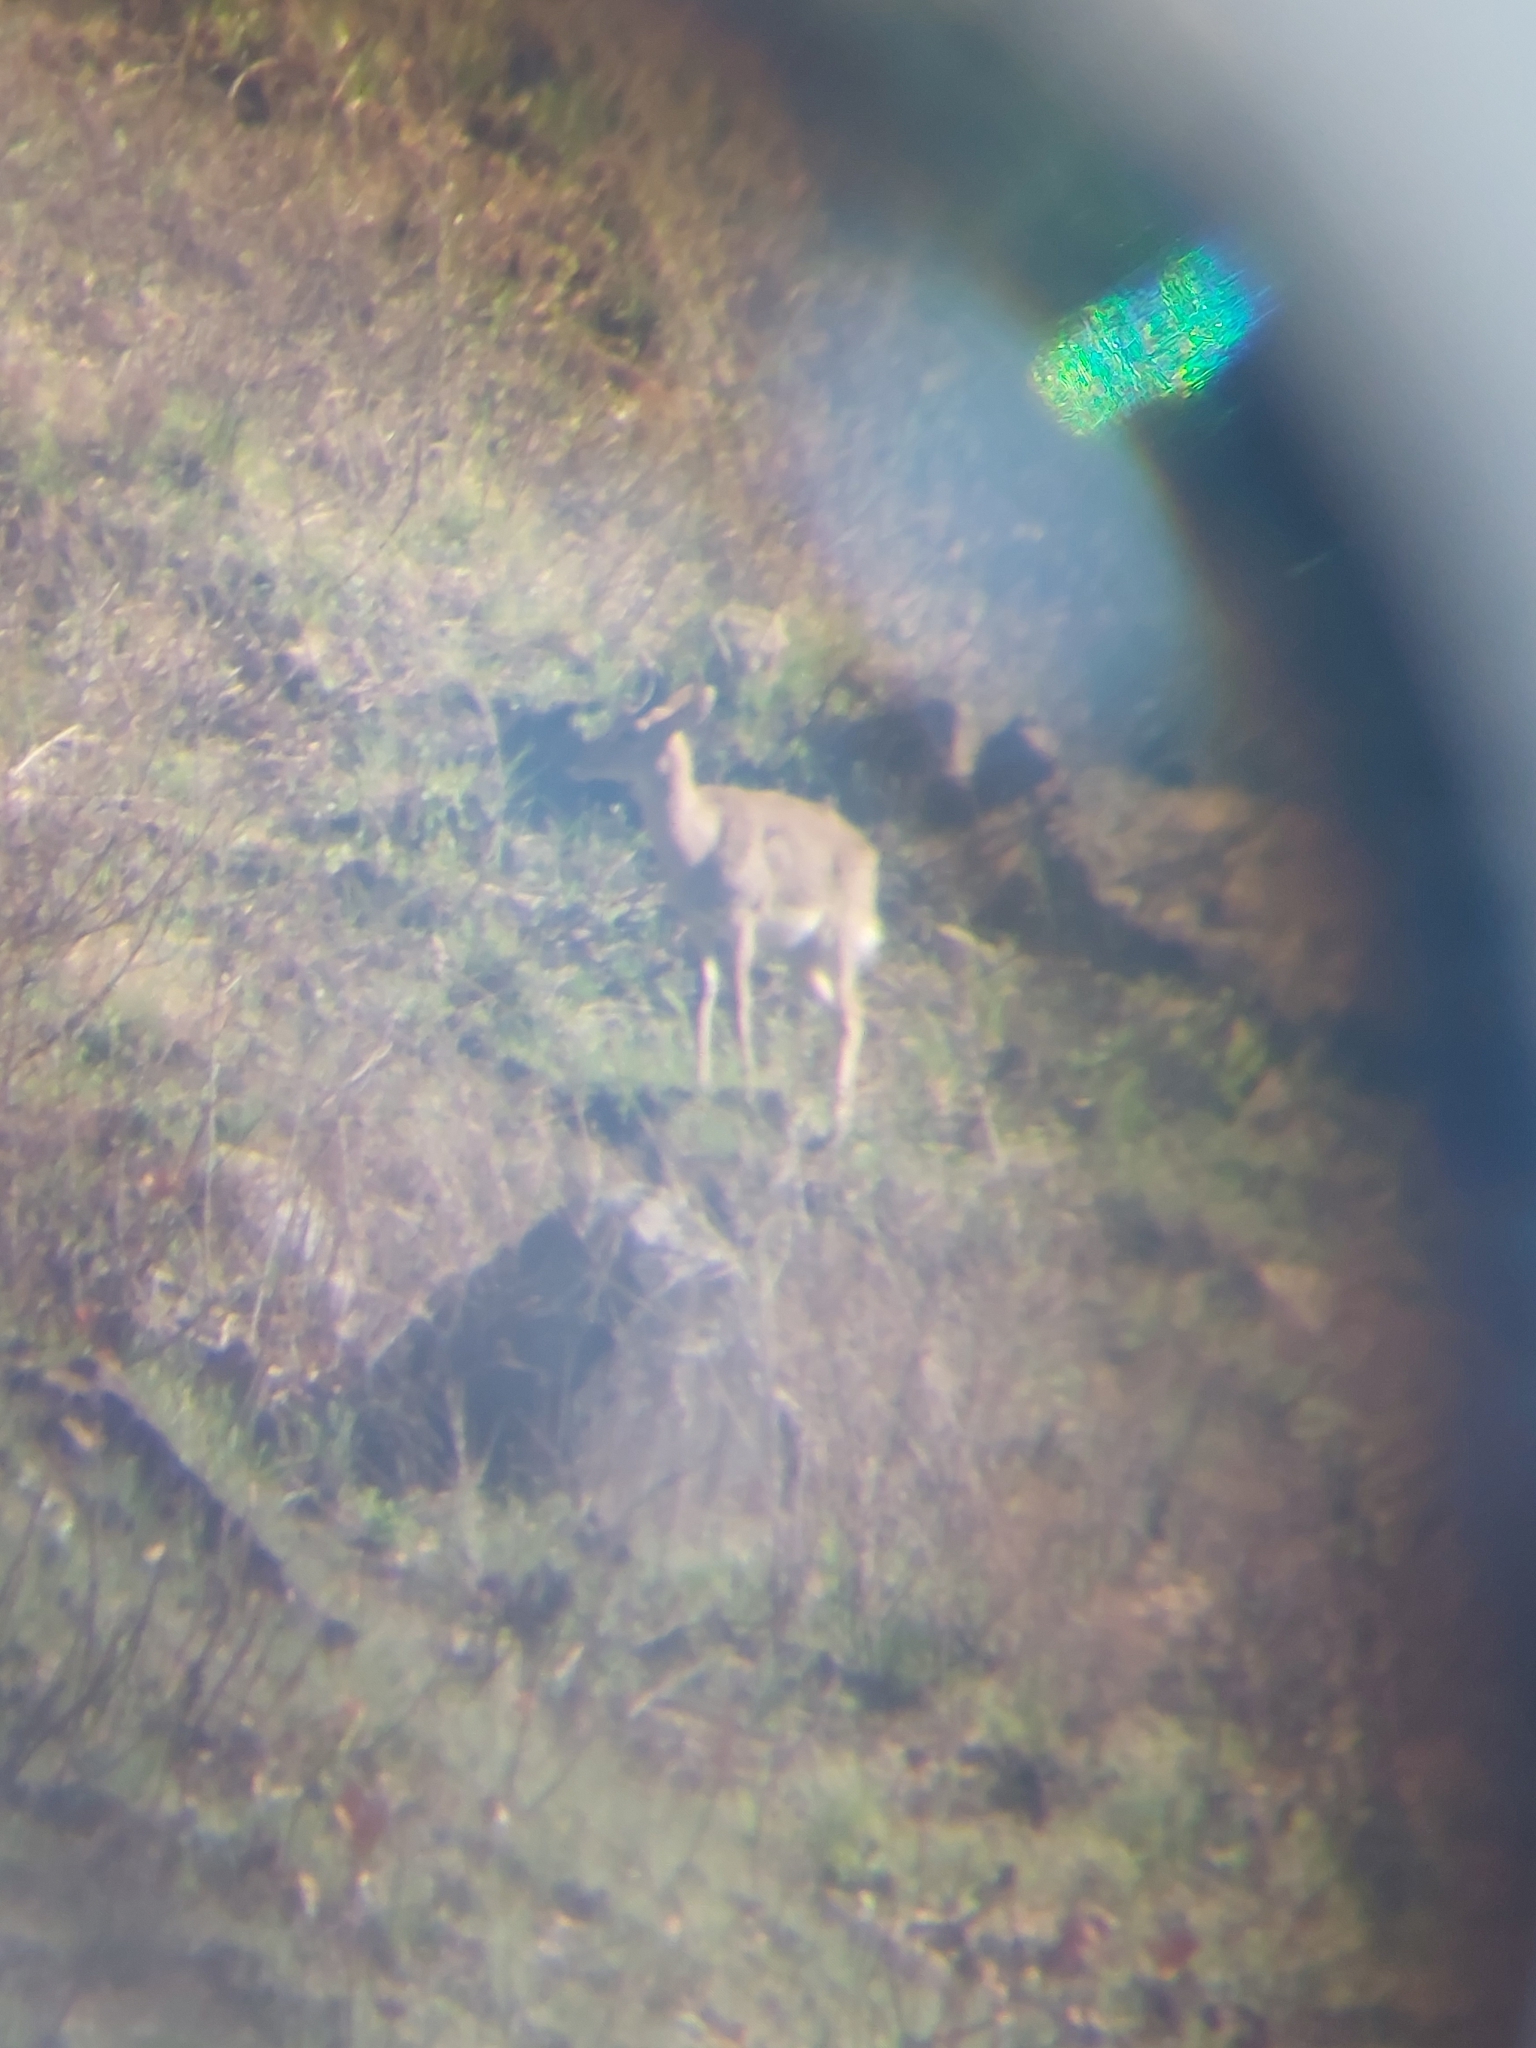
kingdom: Animalia
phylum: Chordata
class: Mammalia
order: Artiodactyla
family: Bovidae
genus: Redunca
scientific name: Redunca fulvorufula
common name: Mountain reedbuck
